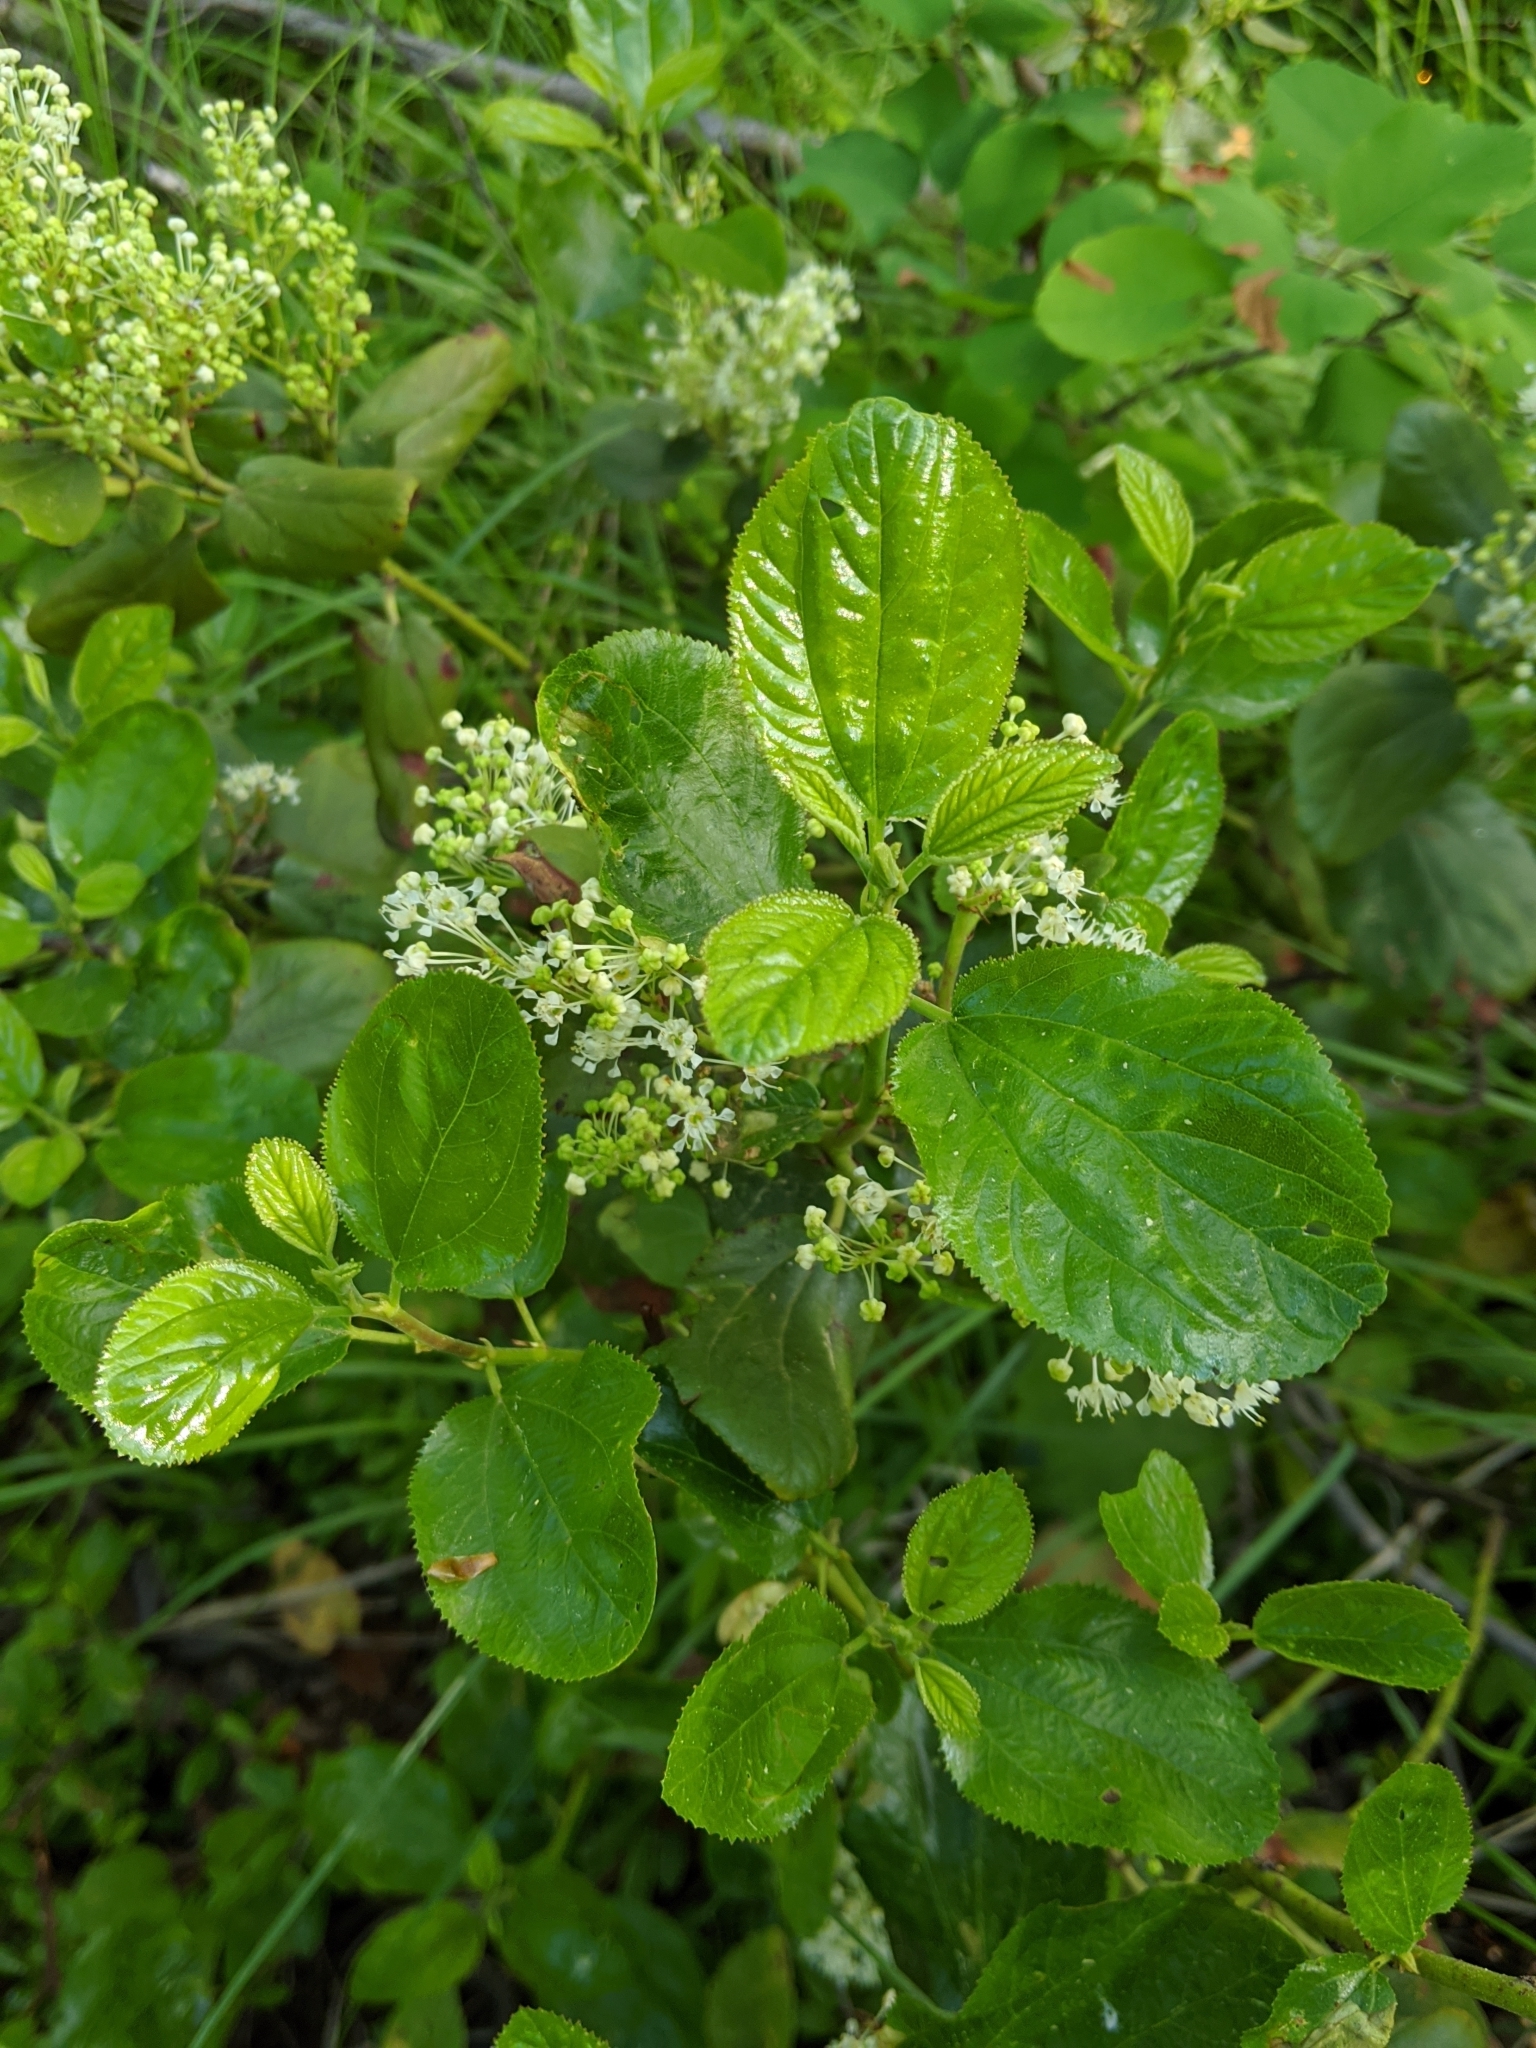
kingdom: Plantae
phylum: Tracheophyta
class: Magnoliopsida
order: Rosales
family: Rhamnaceae
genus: Ceanothus
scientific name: Ceanothus velutinus
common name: Snowbrush
